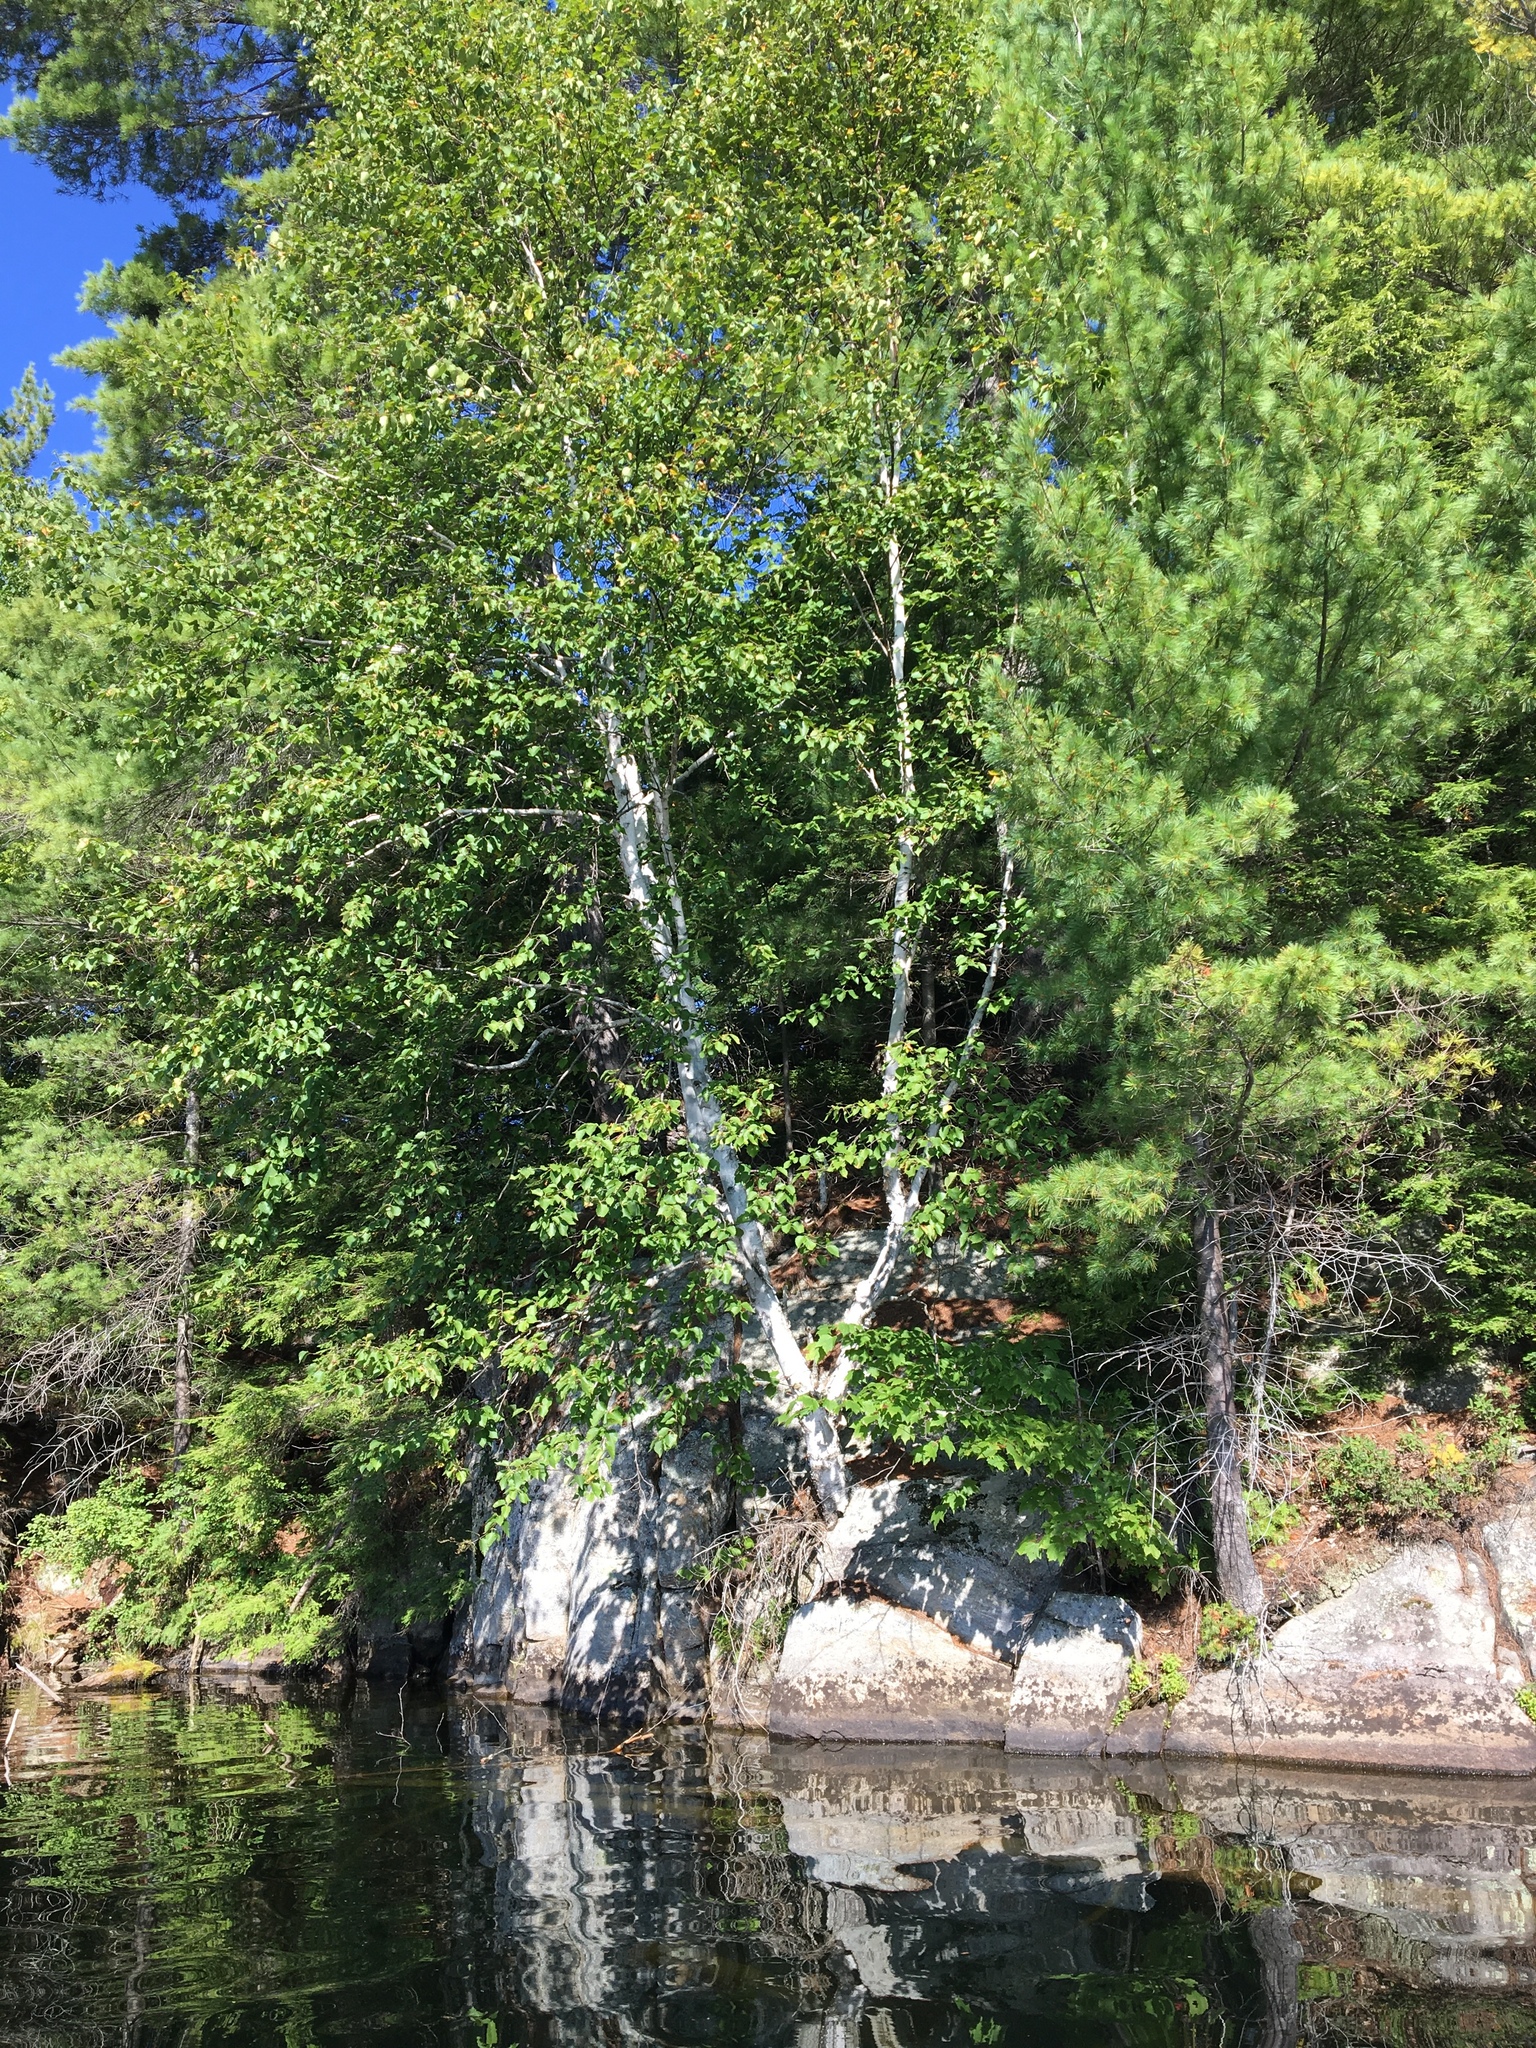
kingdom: Plantae
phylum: Tracheophyta
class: Magnoliopsida
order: Fagales
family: Betulaceae
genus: Betula
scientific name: Betula papyrifera
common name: Paper birch
